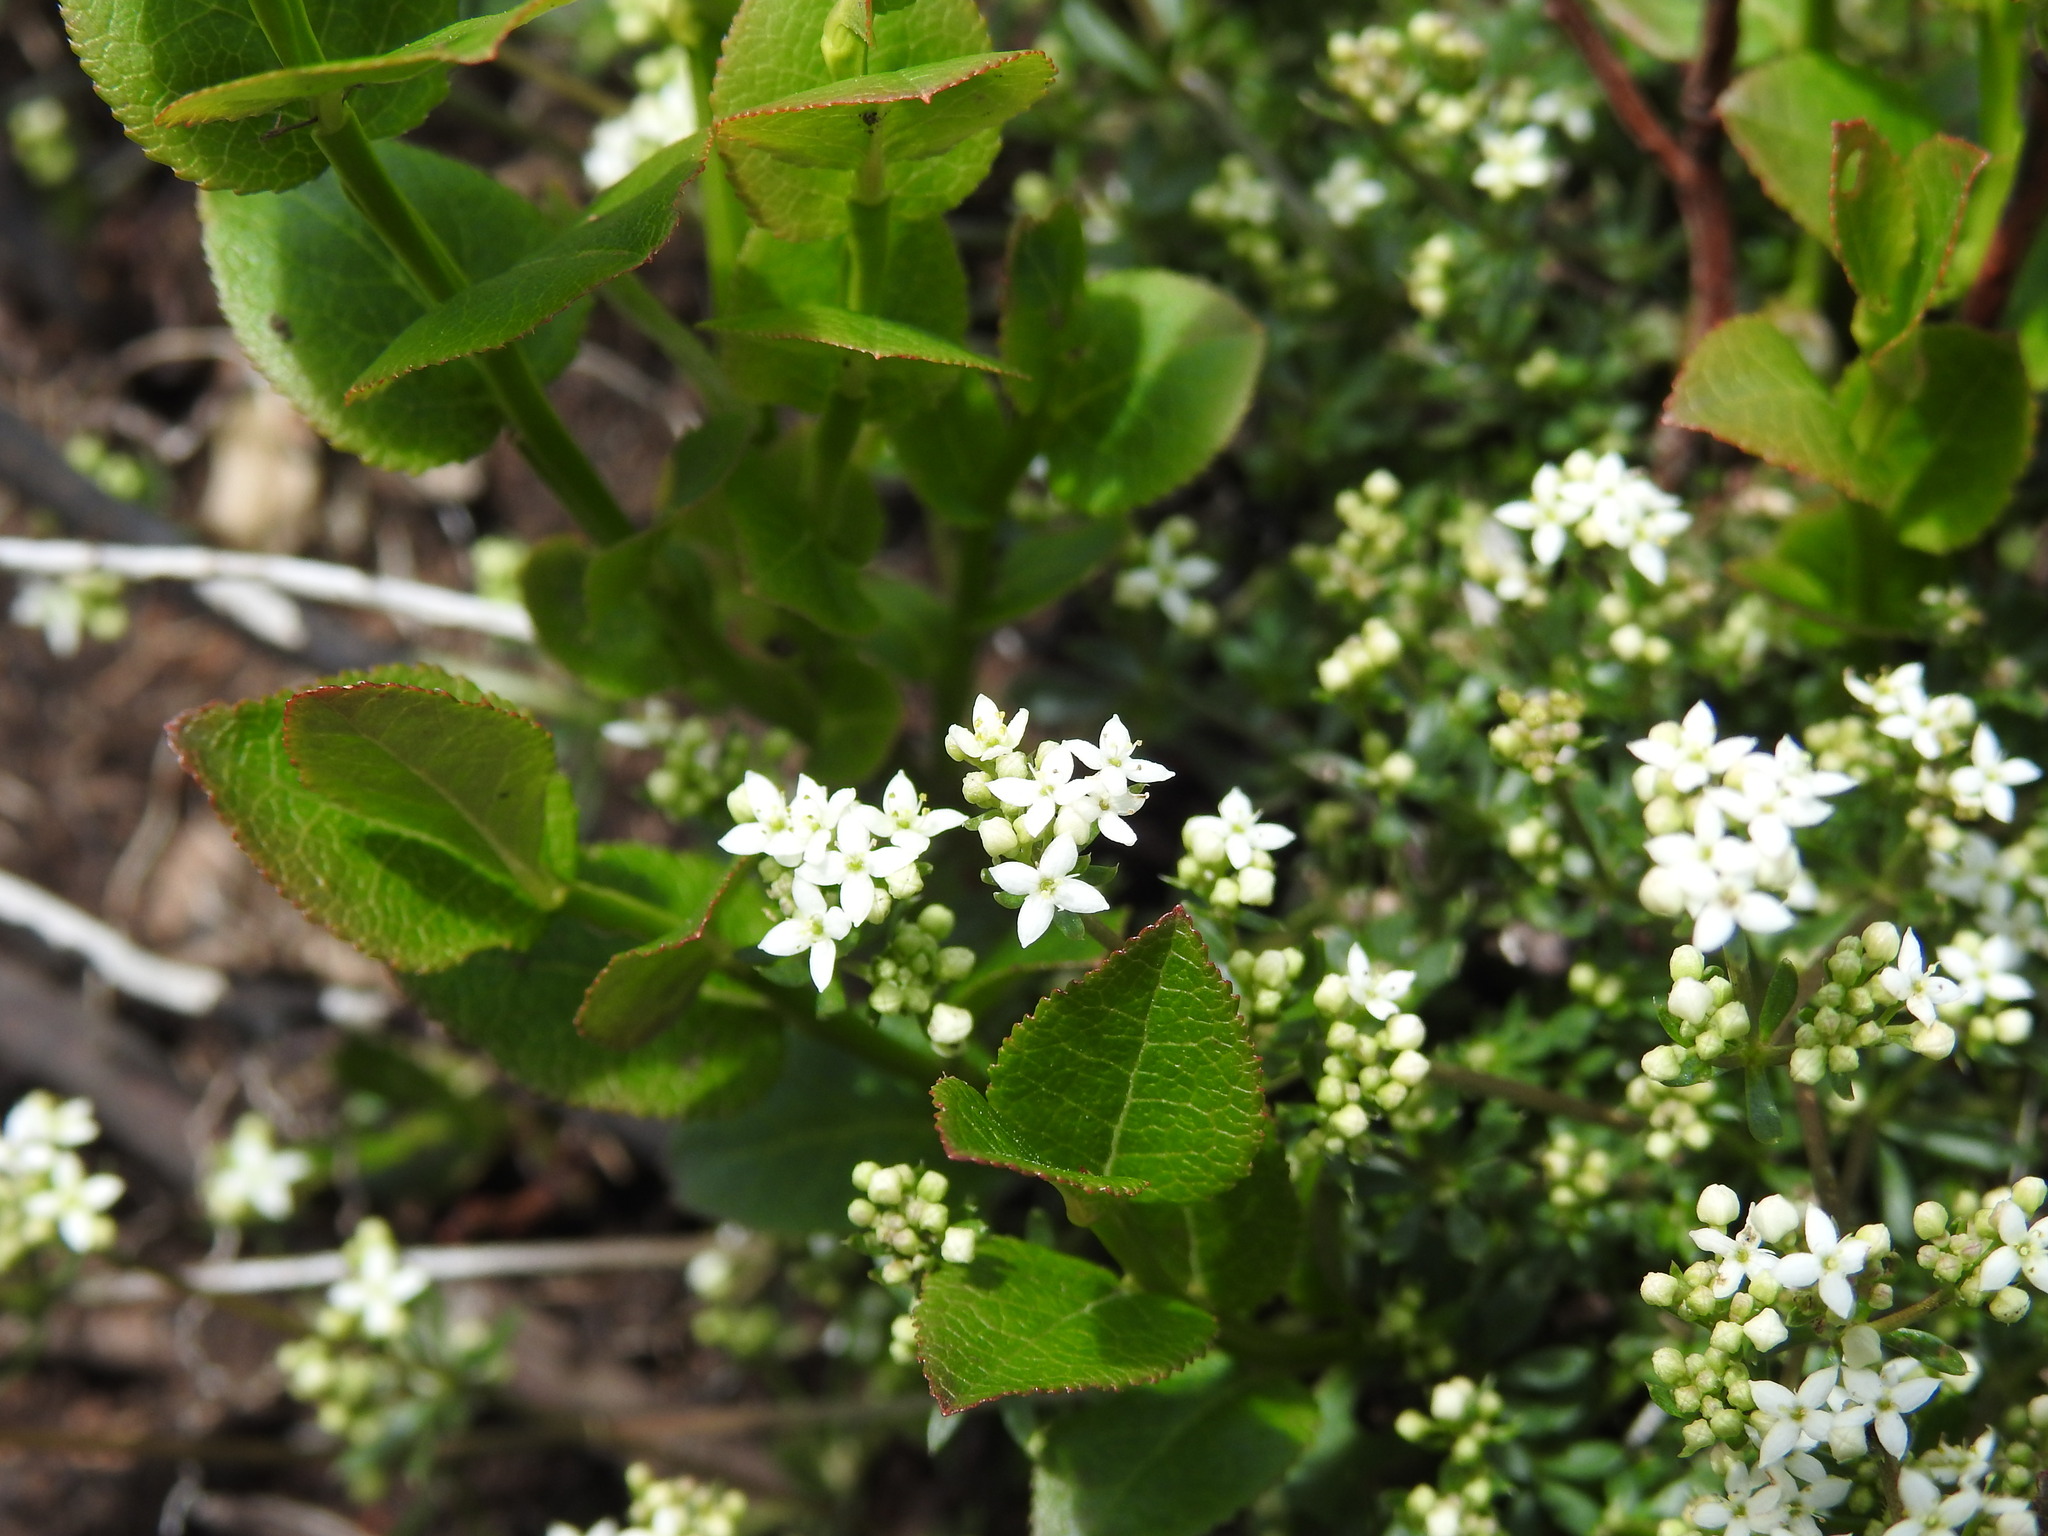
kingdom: Plantae
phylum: Tracheophyta
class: Magnoliopsida
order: Gentianales
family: Rubiaceae
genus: Galium
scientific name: Galium saxatile
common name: Heath bedstraw
